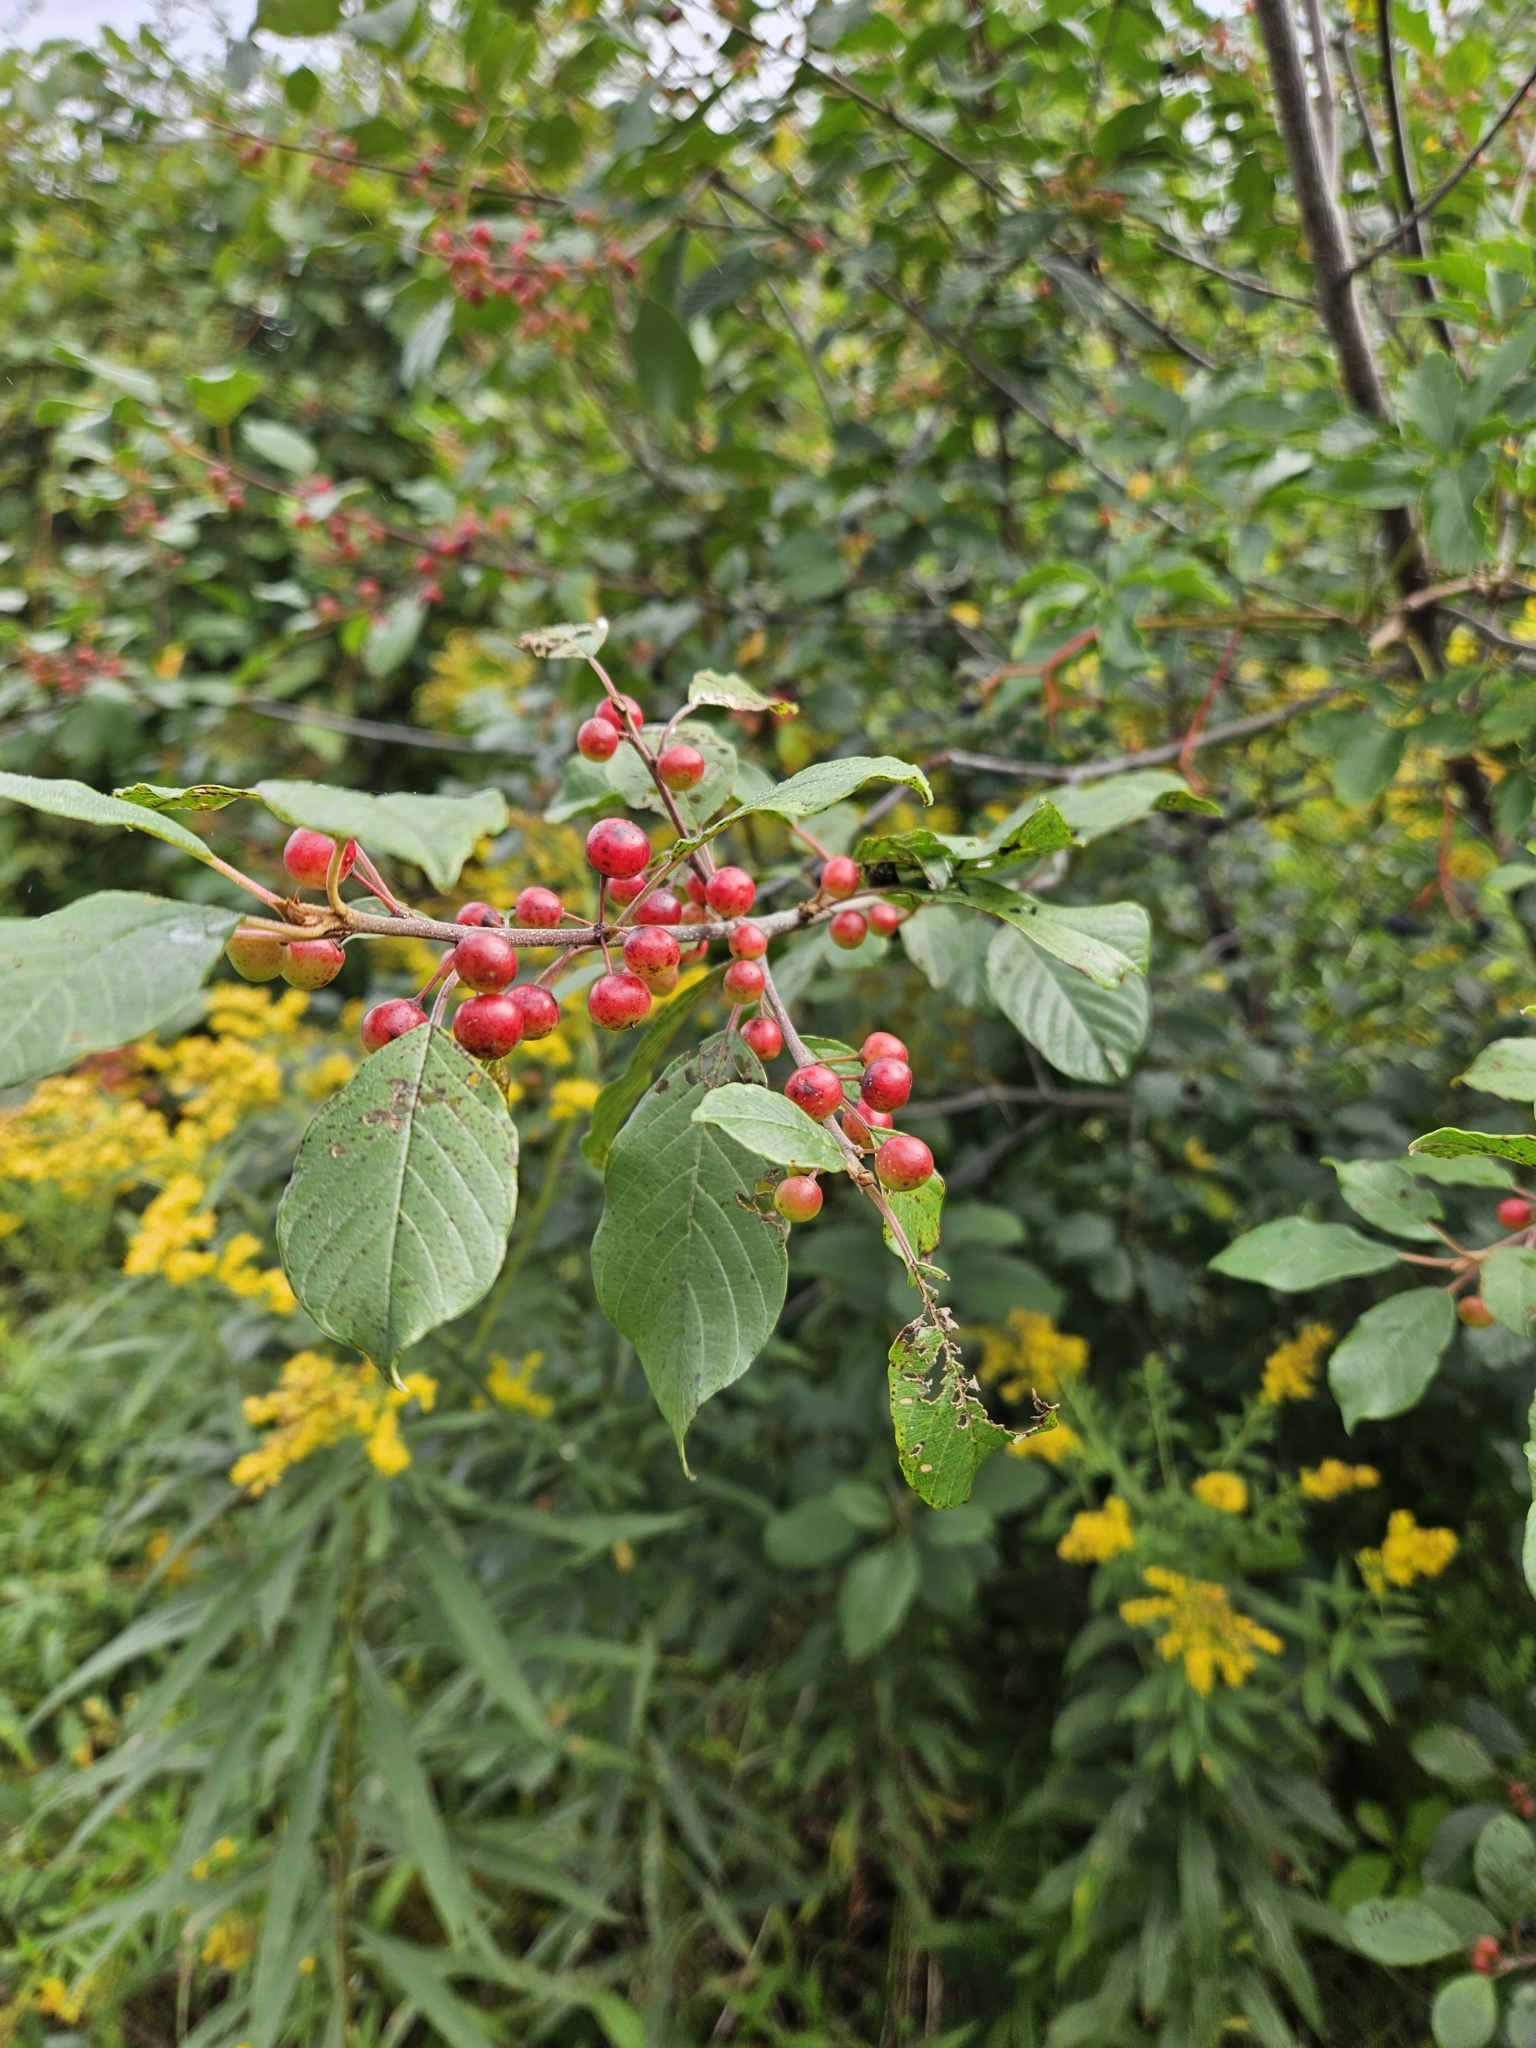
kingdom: Plantae
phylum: Tracheophyta
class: Magnoliopsida
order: Rosales
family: Rhamnaceae
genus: Frangula
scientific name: Frangula alnus
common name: Alder buckthorn
